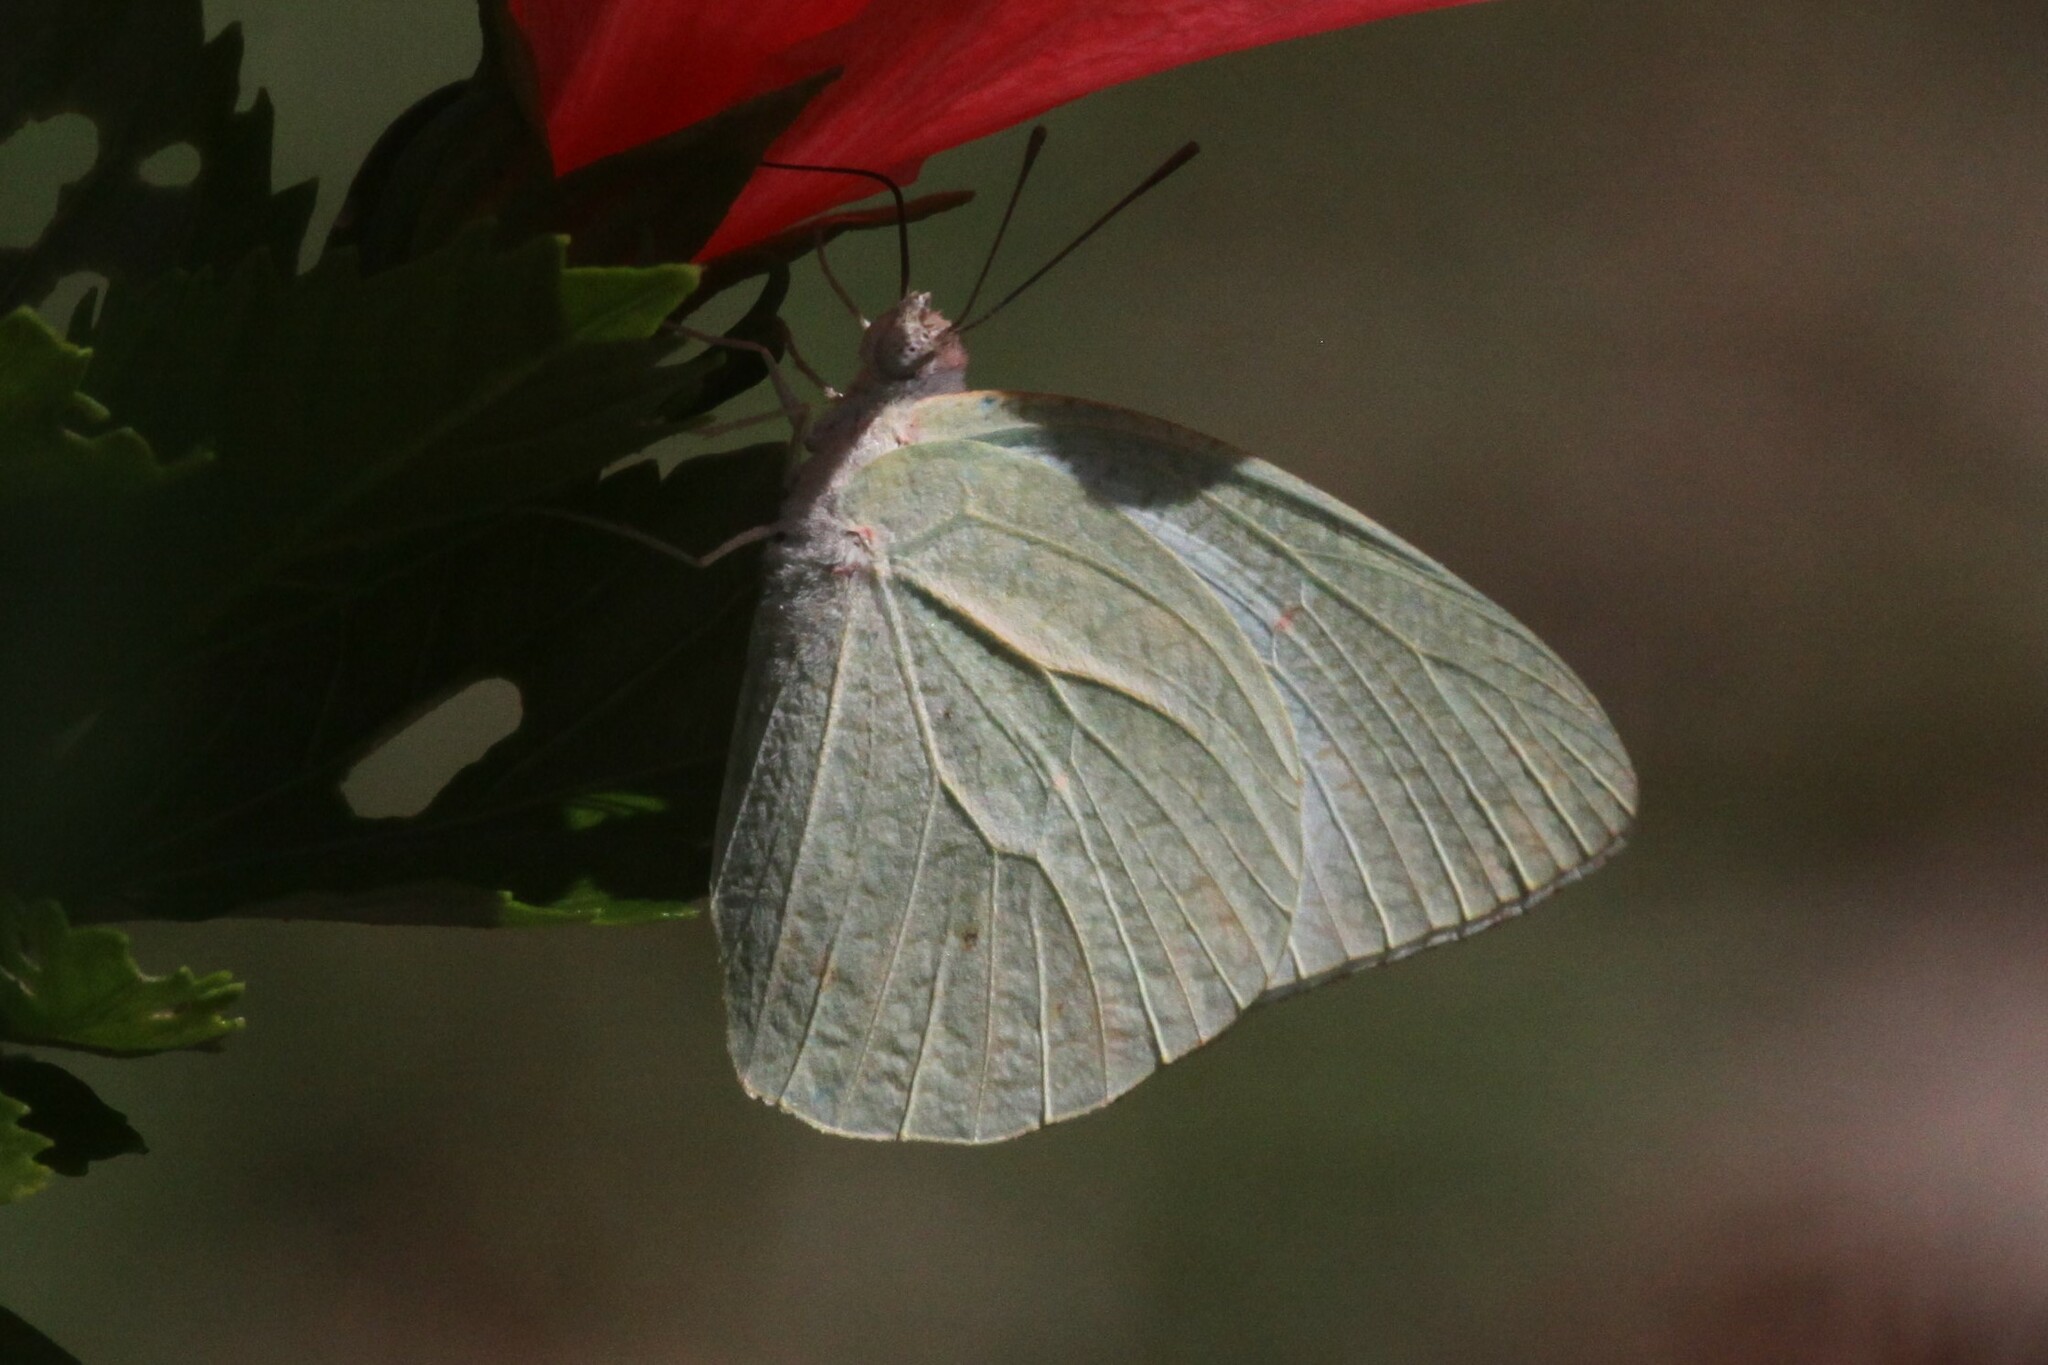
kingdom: Animalia
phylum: Arthropoda
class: Insecta
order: Lepidoptera
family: Pieridae
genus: Catopsilia
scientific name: Catopsilia florella
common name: African migrant
